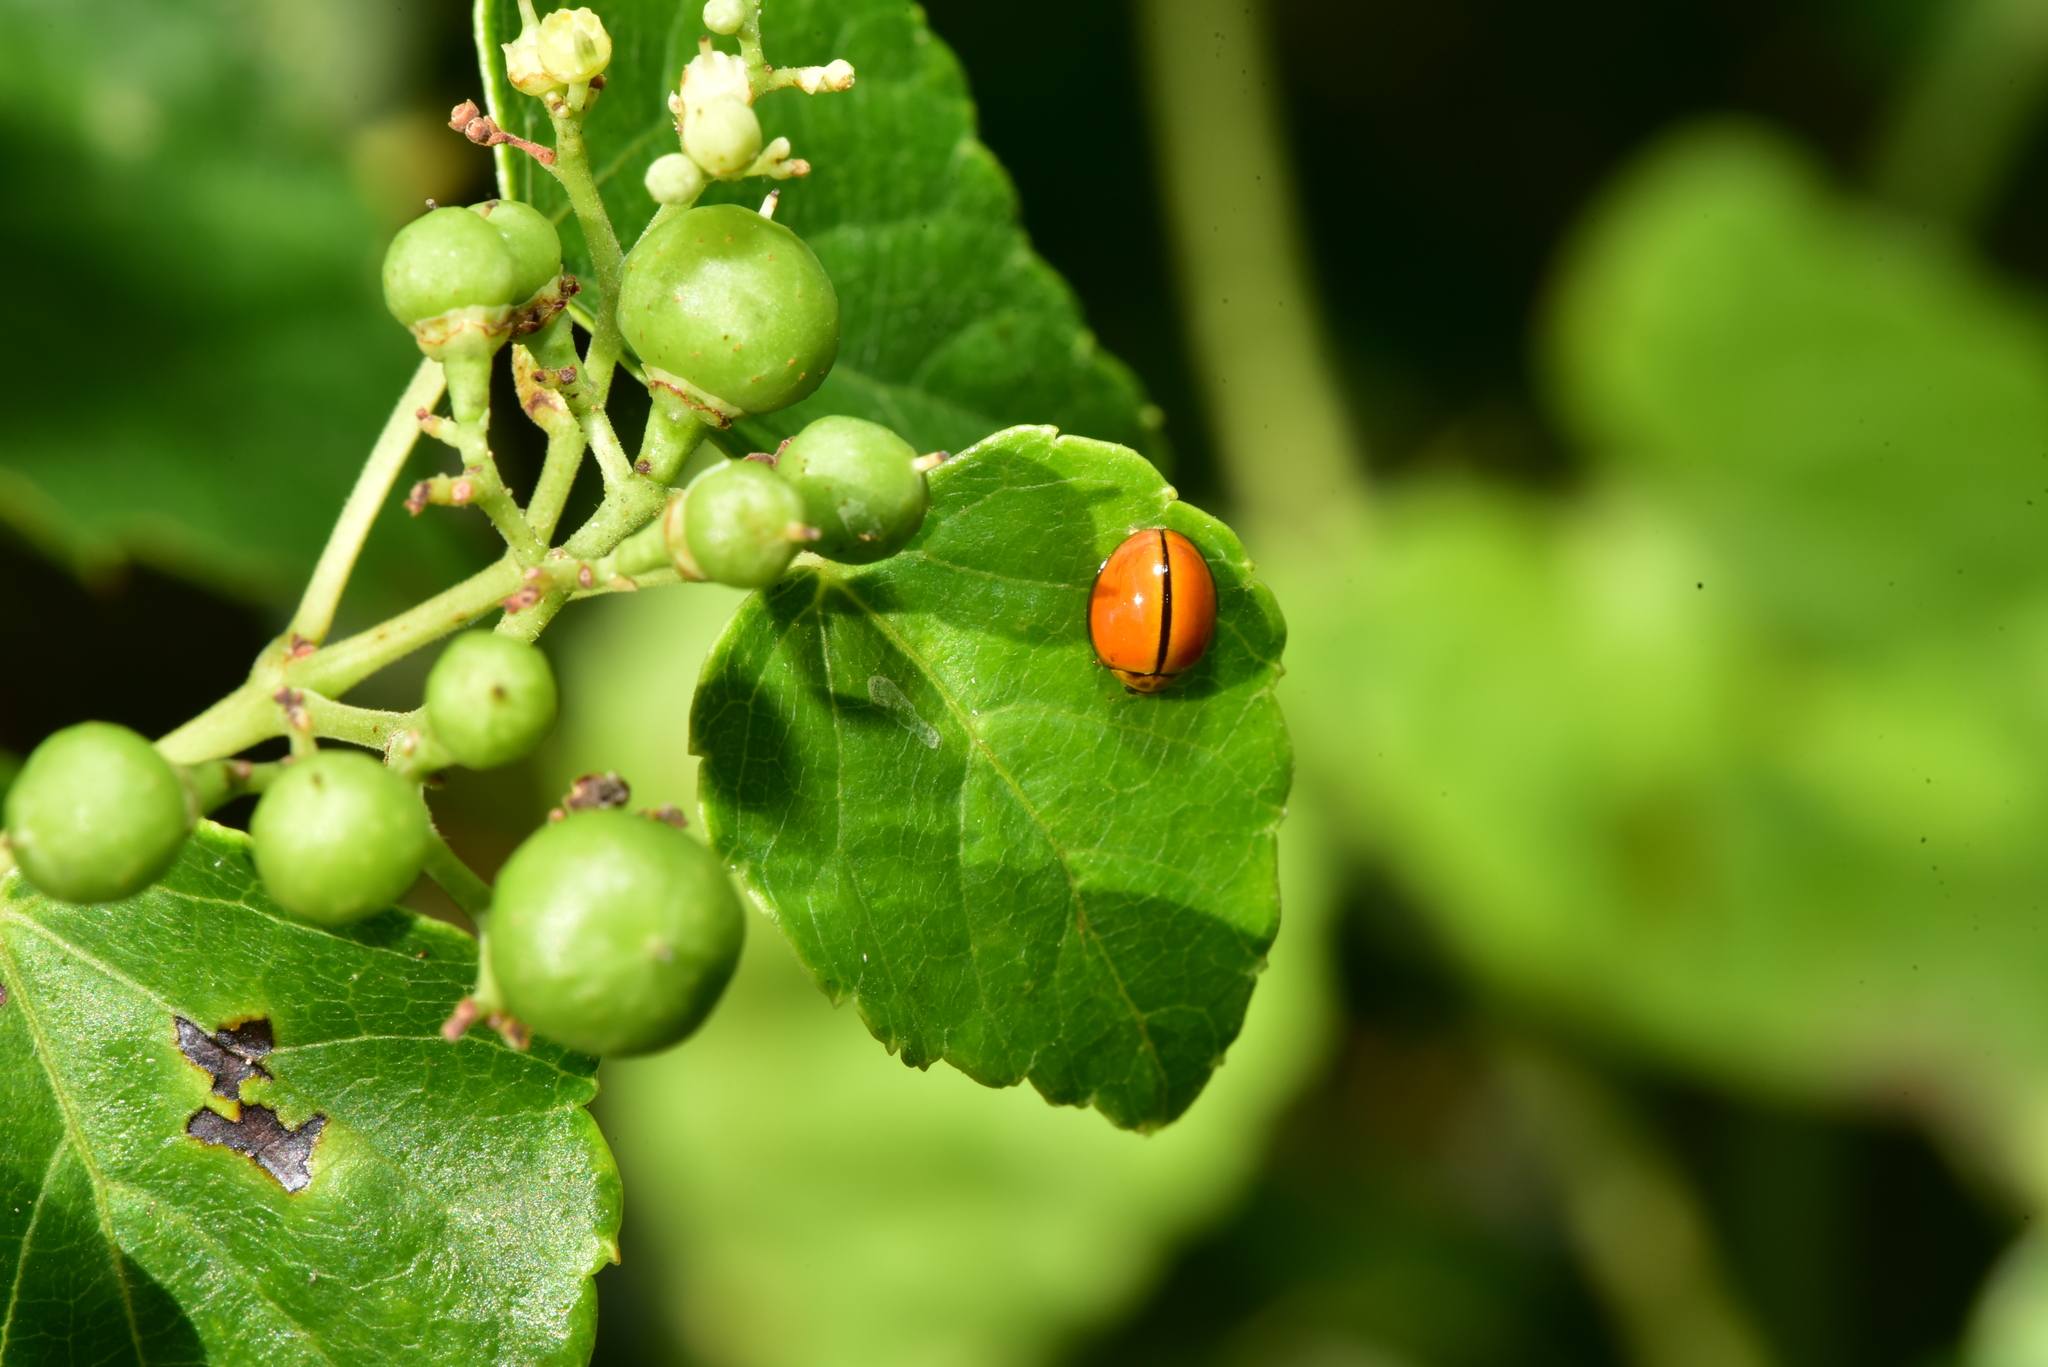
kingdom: Animalia
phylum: Arthropoda
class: Insecta
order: Coleoptera
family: Coccinellidae
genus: Micraspis
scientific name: Micraspis discolor
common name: Lady beetle
